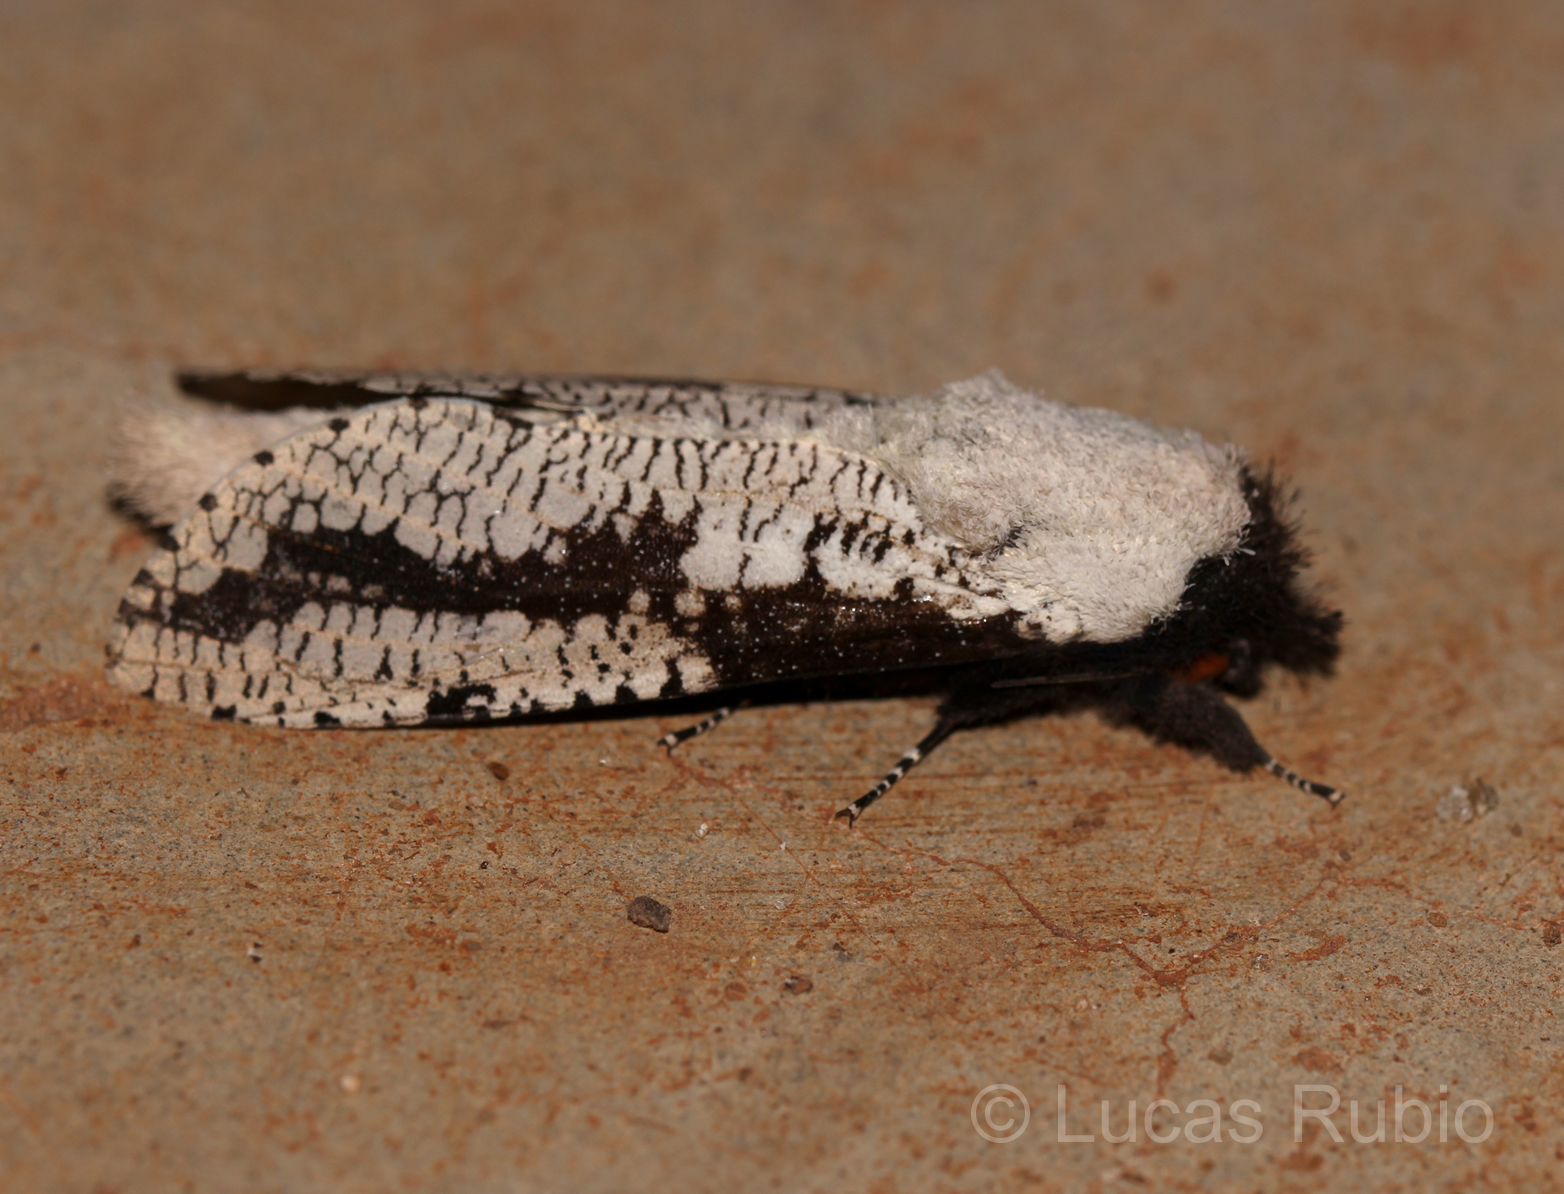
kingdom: Animalia
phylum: Arthropoda
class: Insecta
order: Lepidoptera
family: Cossidae
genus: Morpheis
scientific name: Morpheis pyracmon
